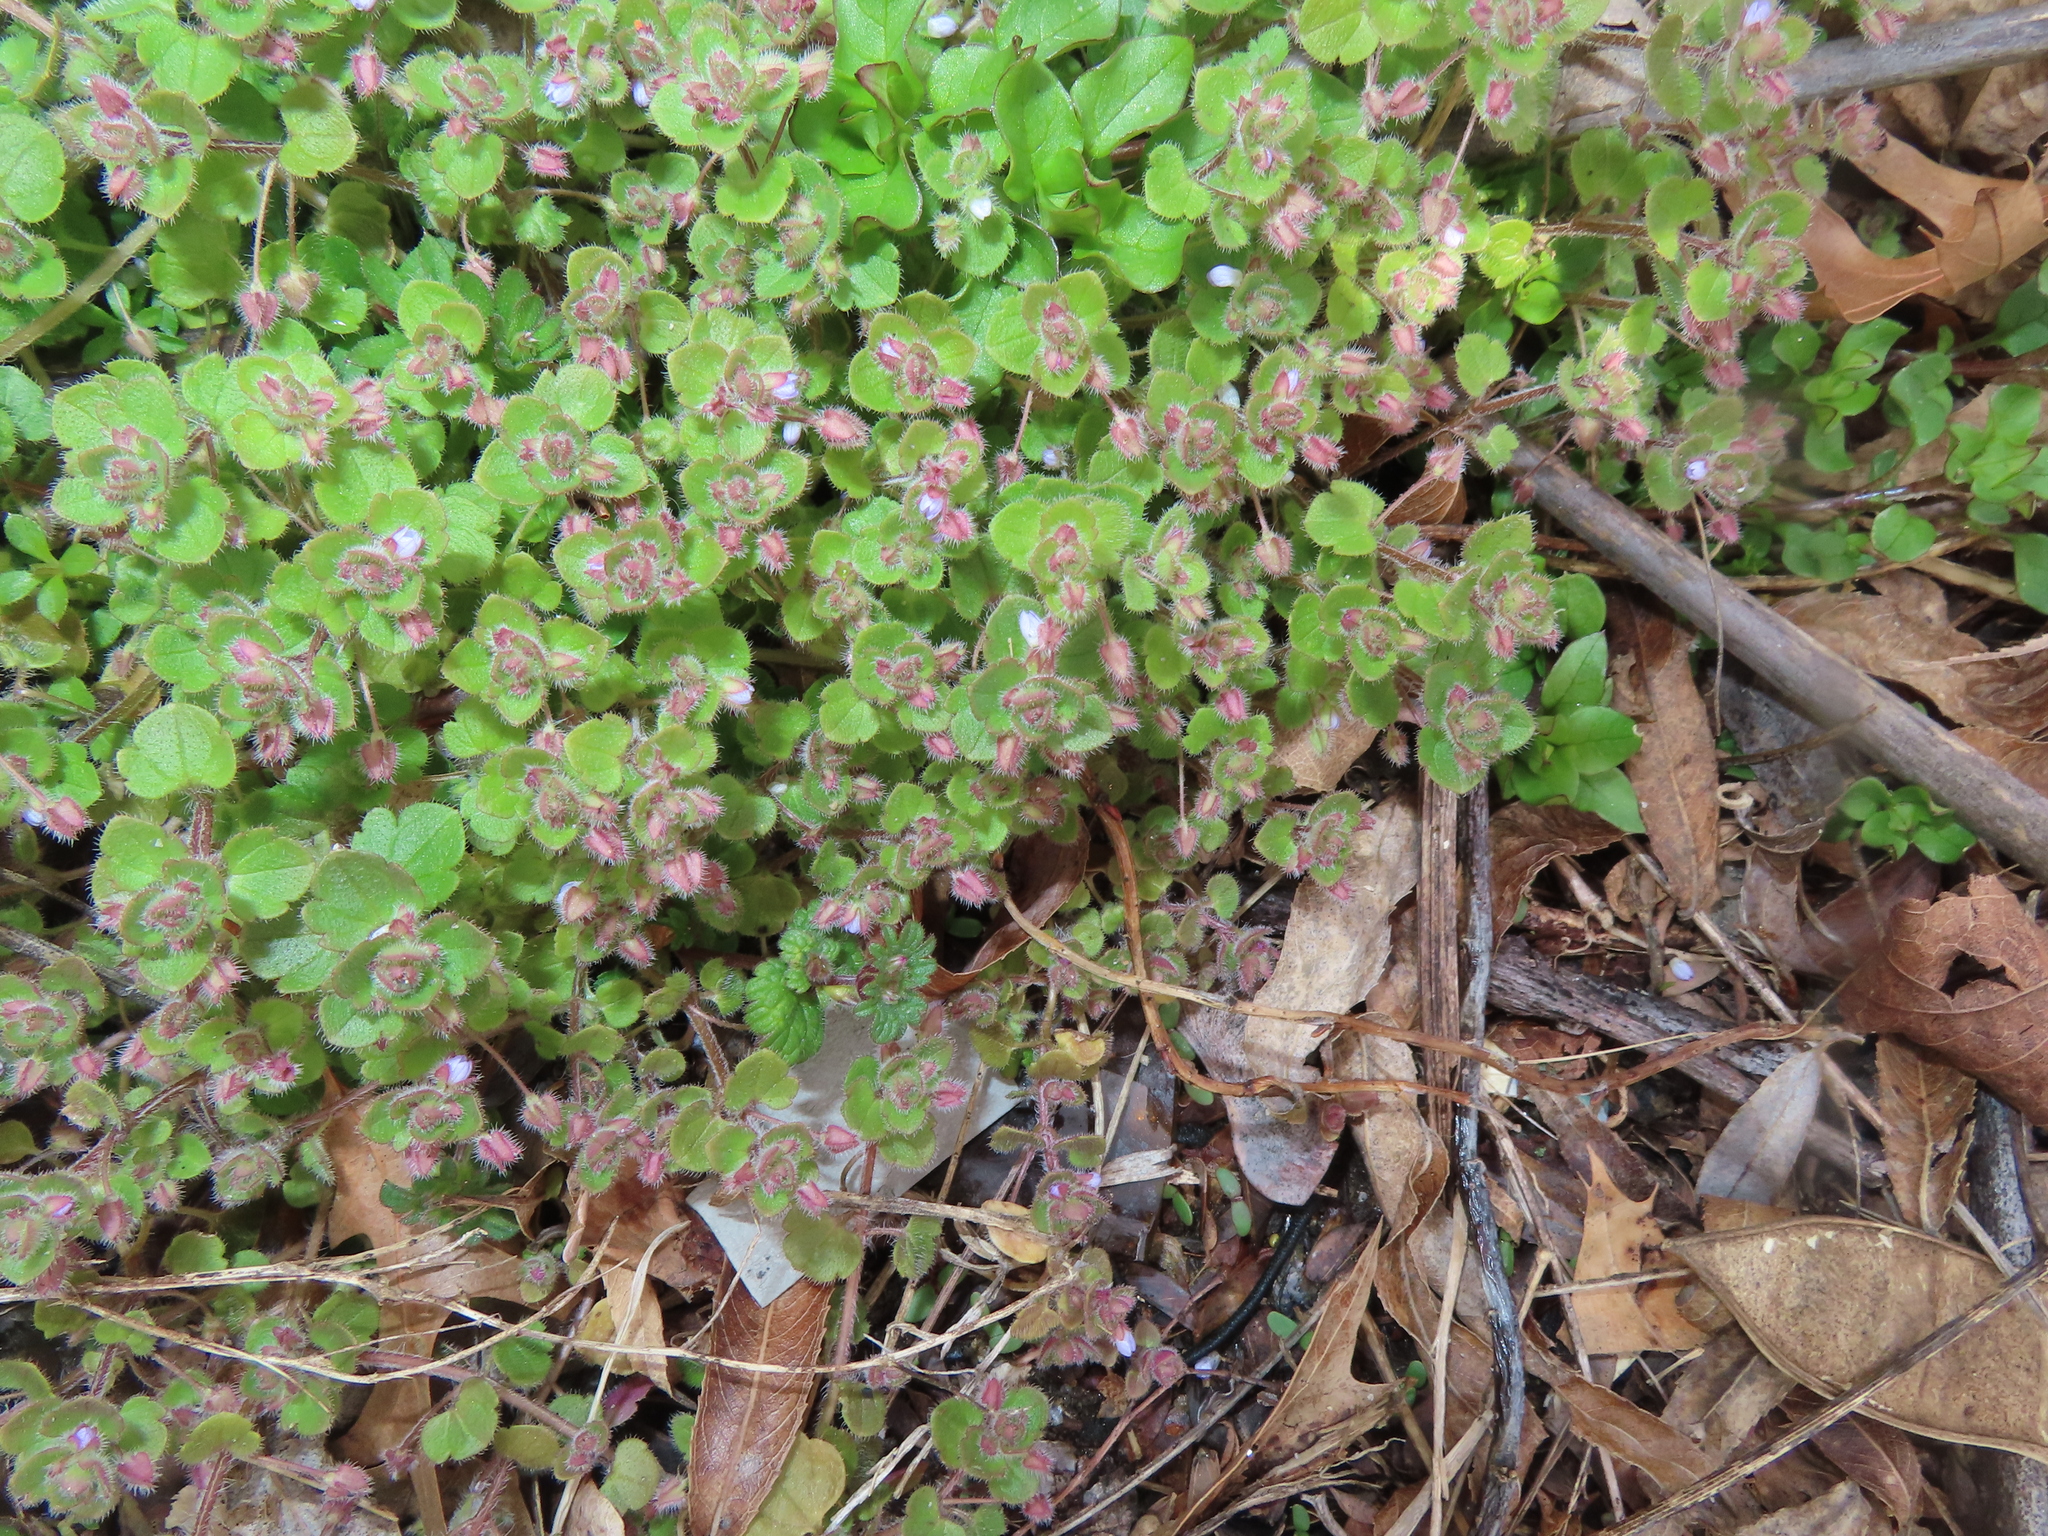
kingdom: Plantae
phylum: Tracheophyta
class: Magnoliopsida
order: Lamiales
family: Plantaginaceae
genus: Veronica
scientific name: Veronica sublobata
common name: False ivy-leaved speedwell
